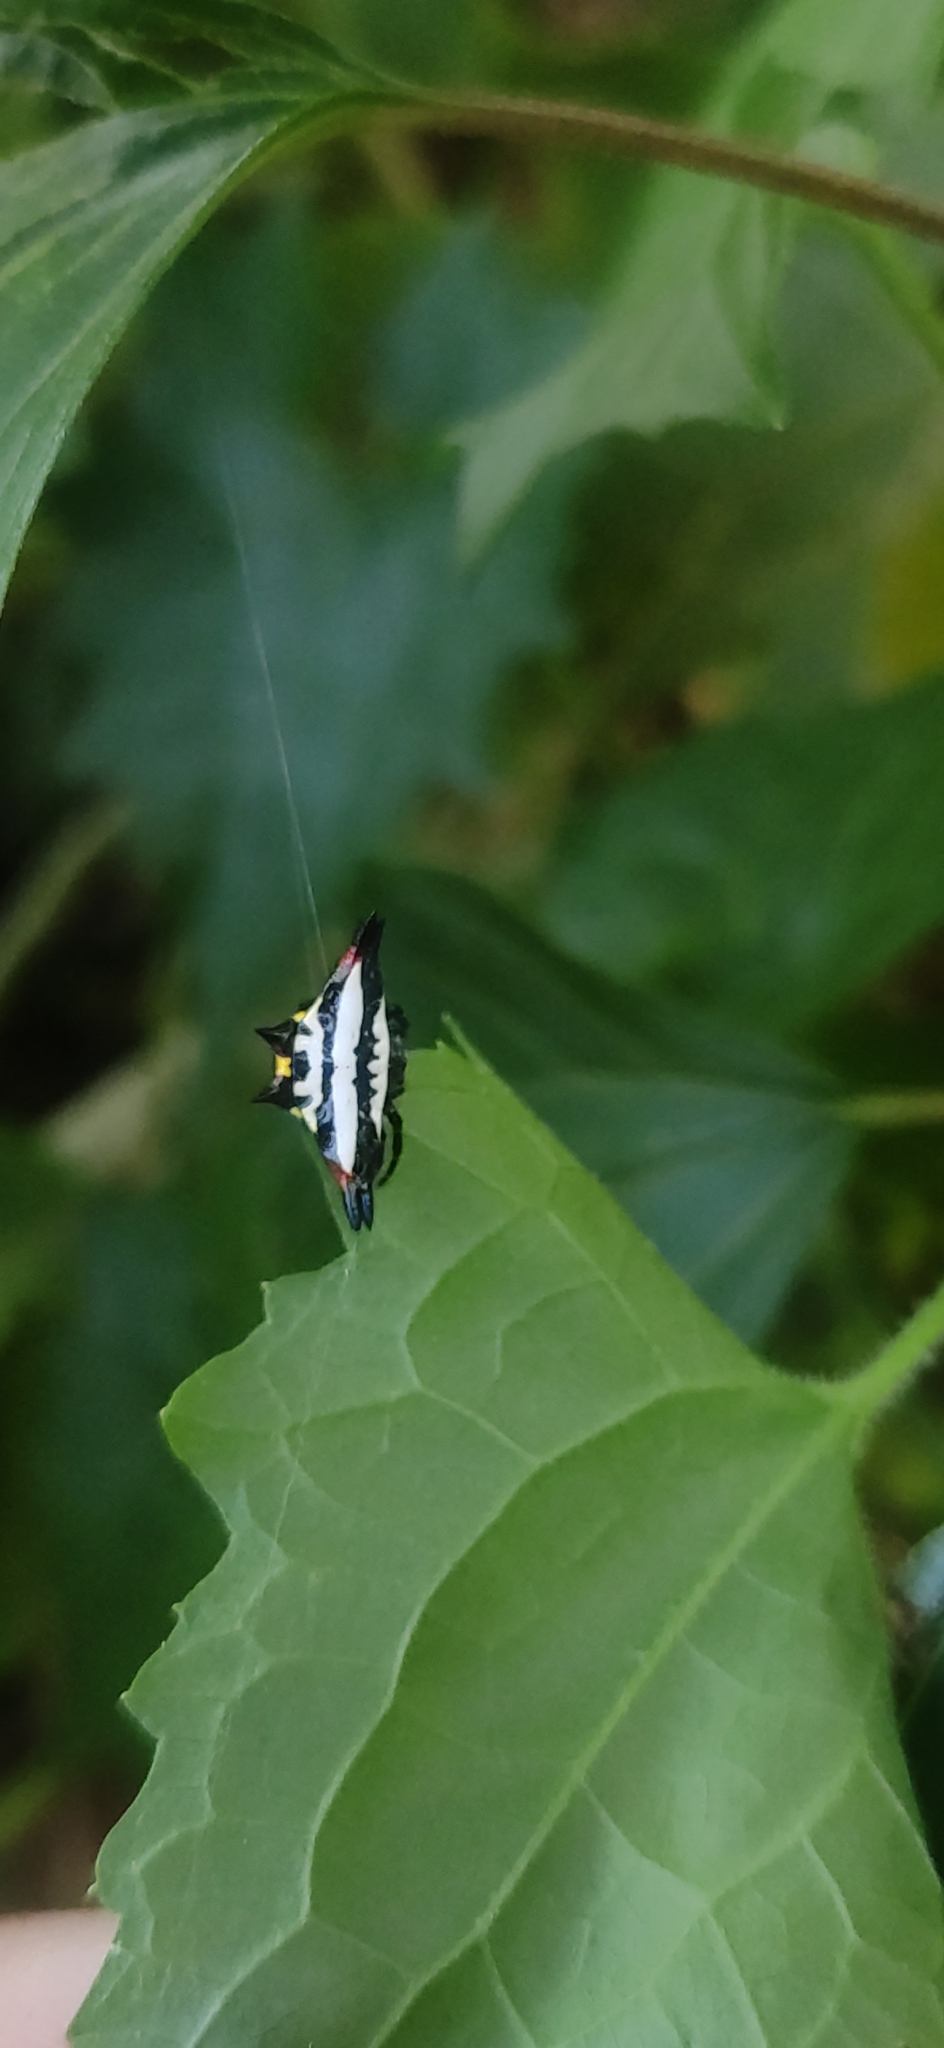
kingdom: Animalia
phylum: Arthropoda
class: Arachnida
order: Araneae
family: Araneidae
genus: Gasteracantha
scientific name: Gasteracantha geminata
